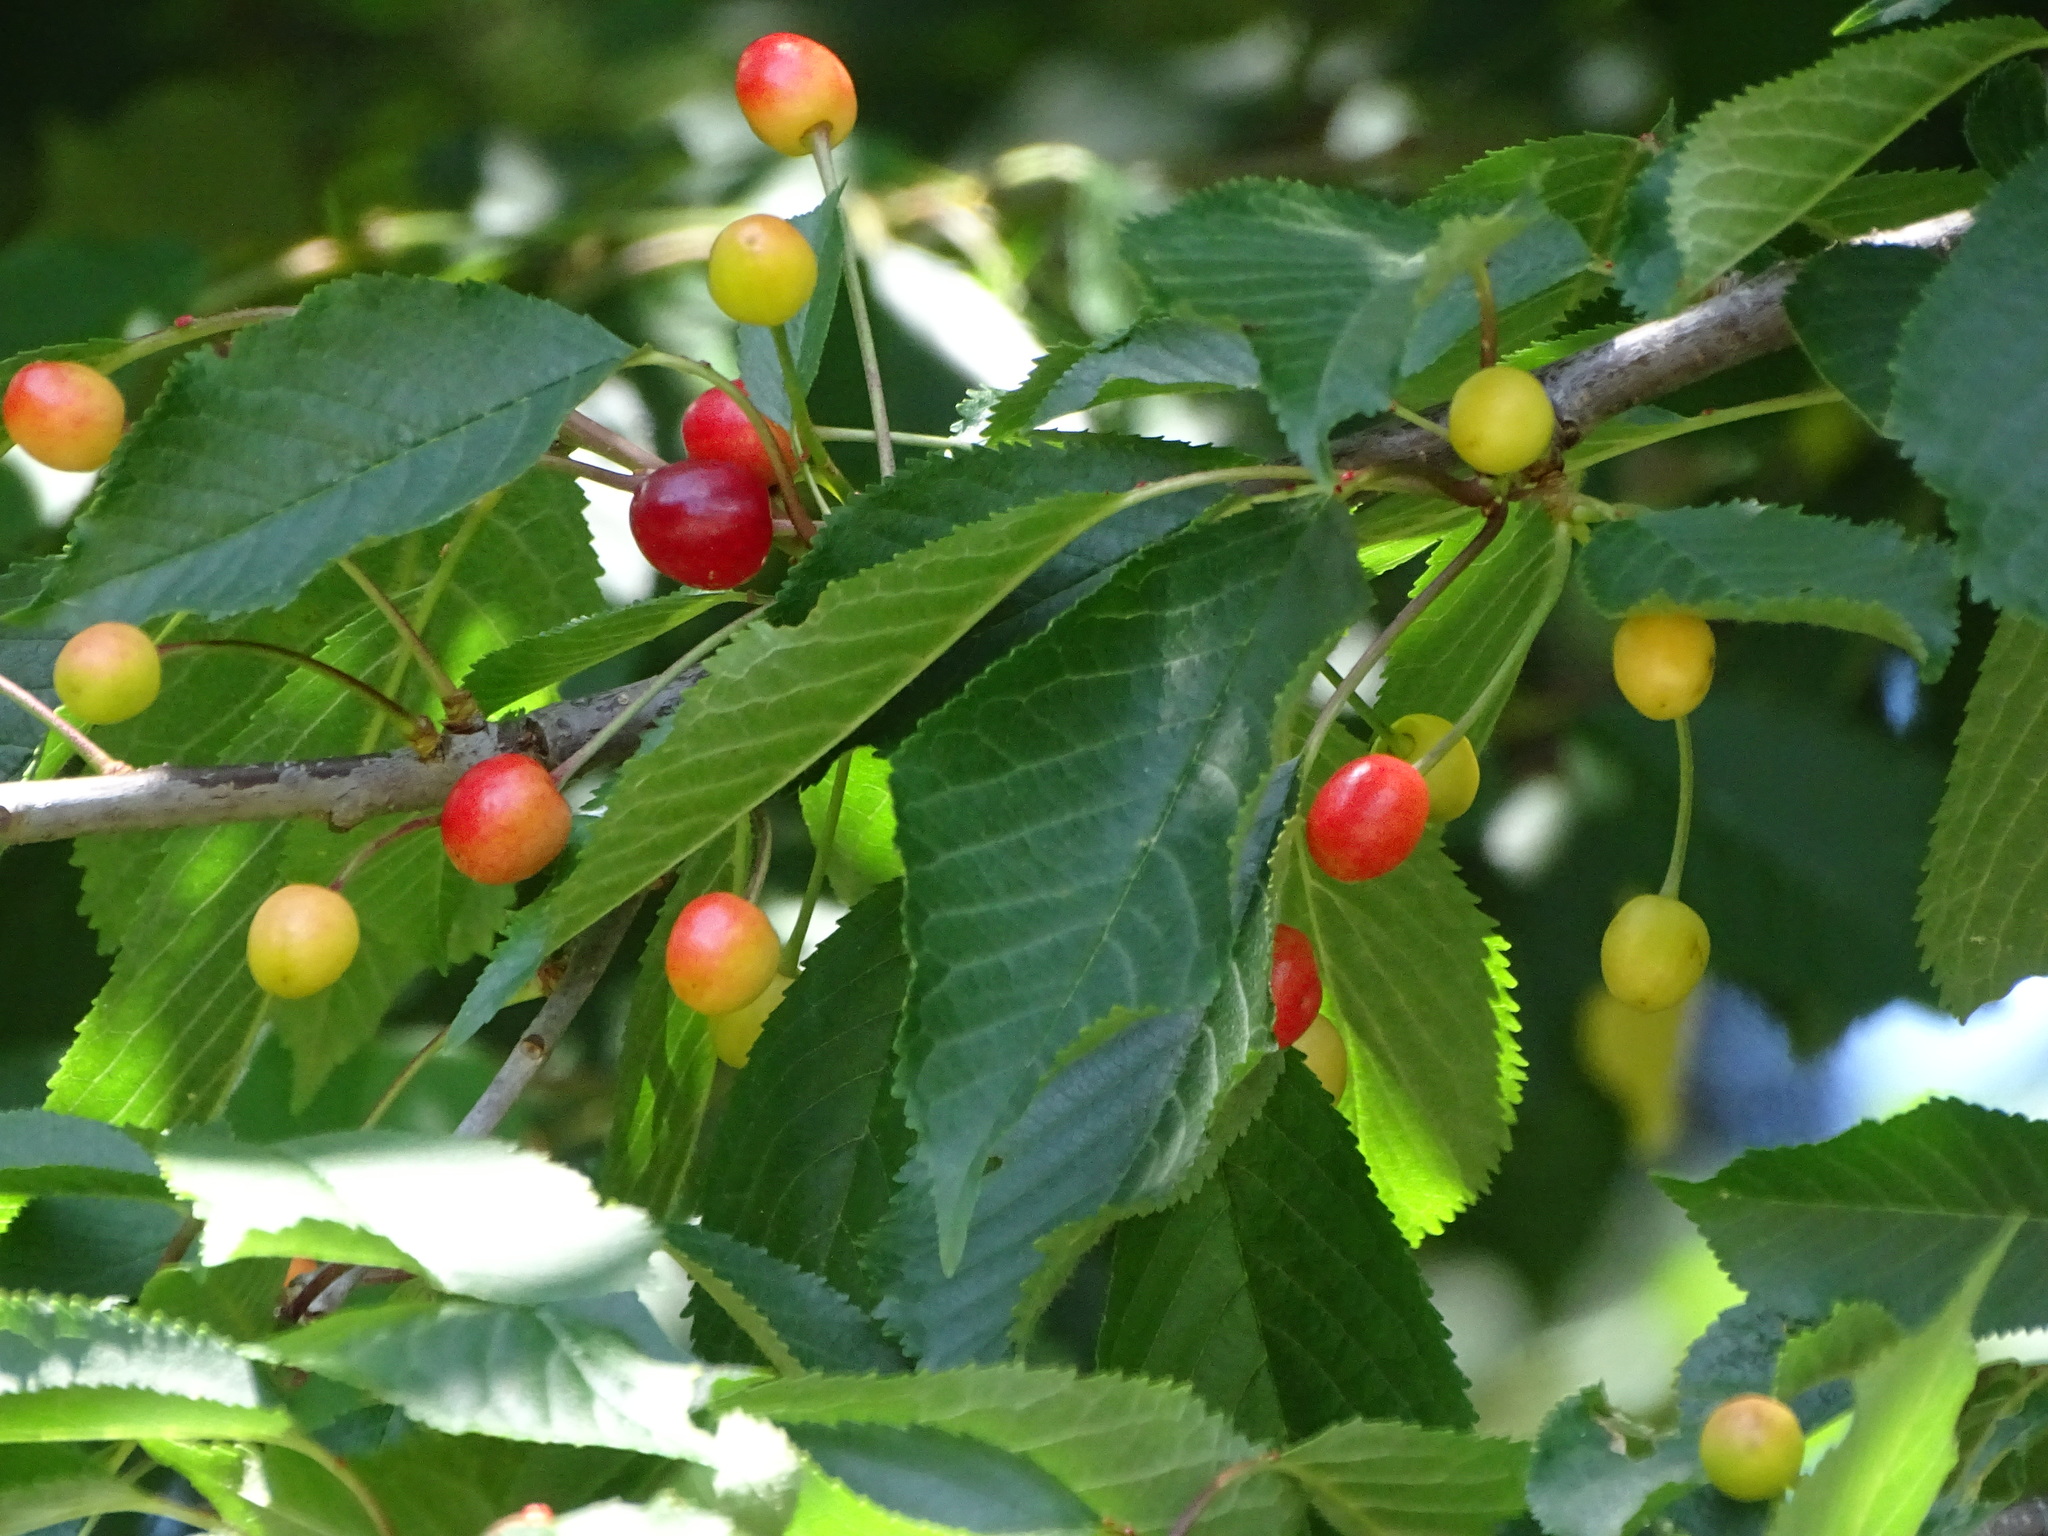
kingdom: Plantae
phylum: Tracheophyta
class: Magnoliopsida
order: Rosales
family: Rosaceae
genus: Prunus
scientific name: Prunus avium
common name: Sweet cherry
